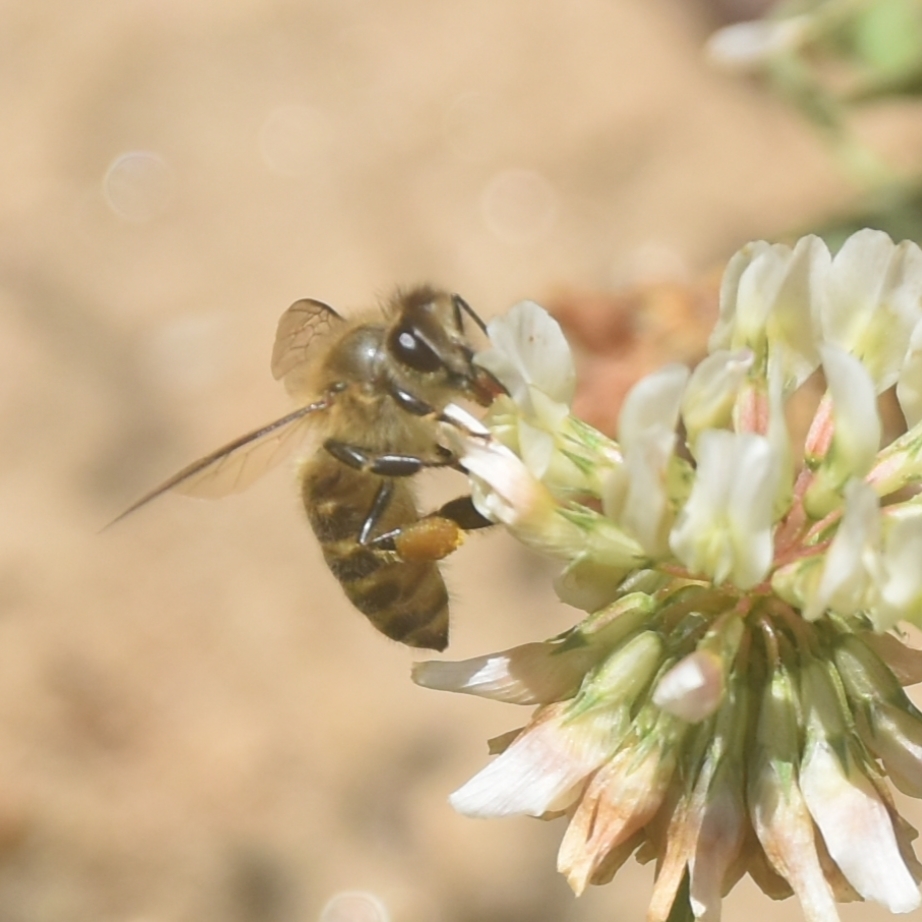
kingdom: Animalia
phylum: Arthropoda
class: Insecta
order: Hymenoptera
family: Apidae
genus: Apis
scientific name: Apis cerana
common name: Honey bee
